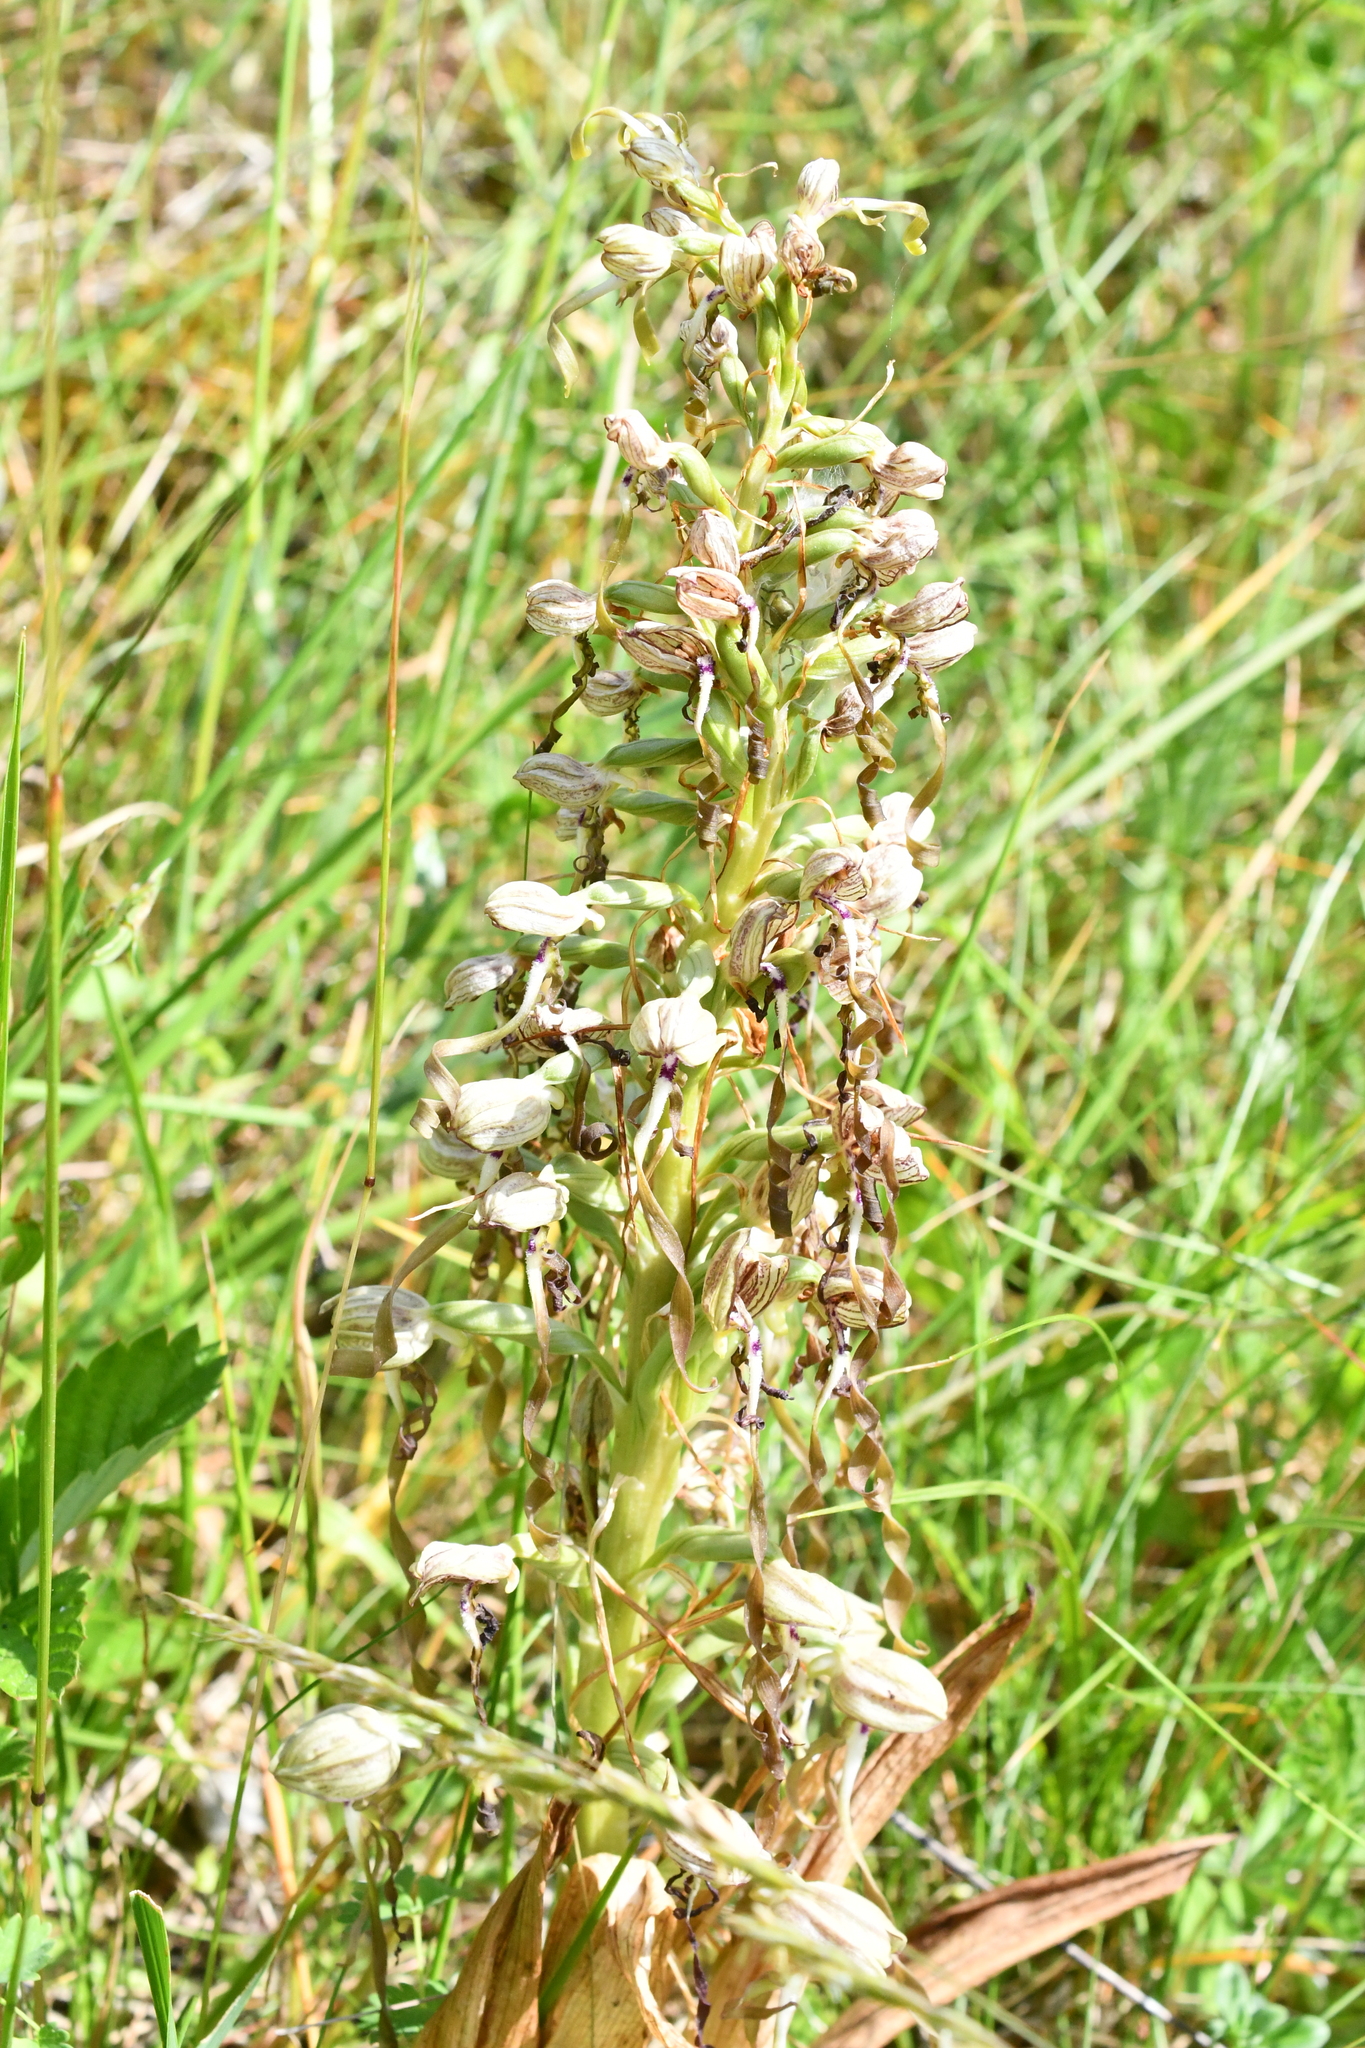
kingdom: Plantae
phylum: Tracheophyta
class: Liliopsida
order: Asparagales
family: Orchidaceae
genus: Himantoglossum
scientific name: Himantoglossum hircinum
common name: Lizard orchid
